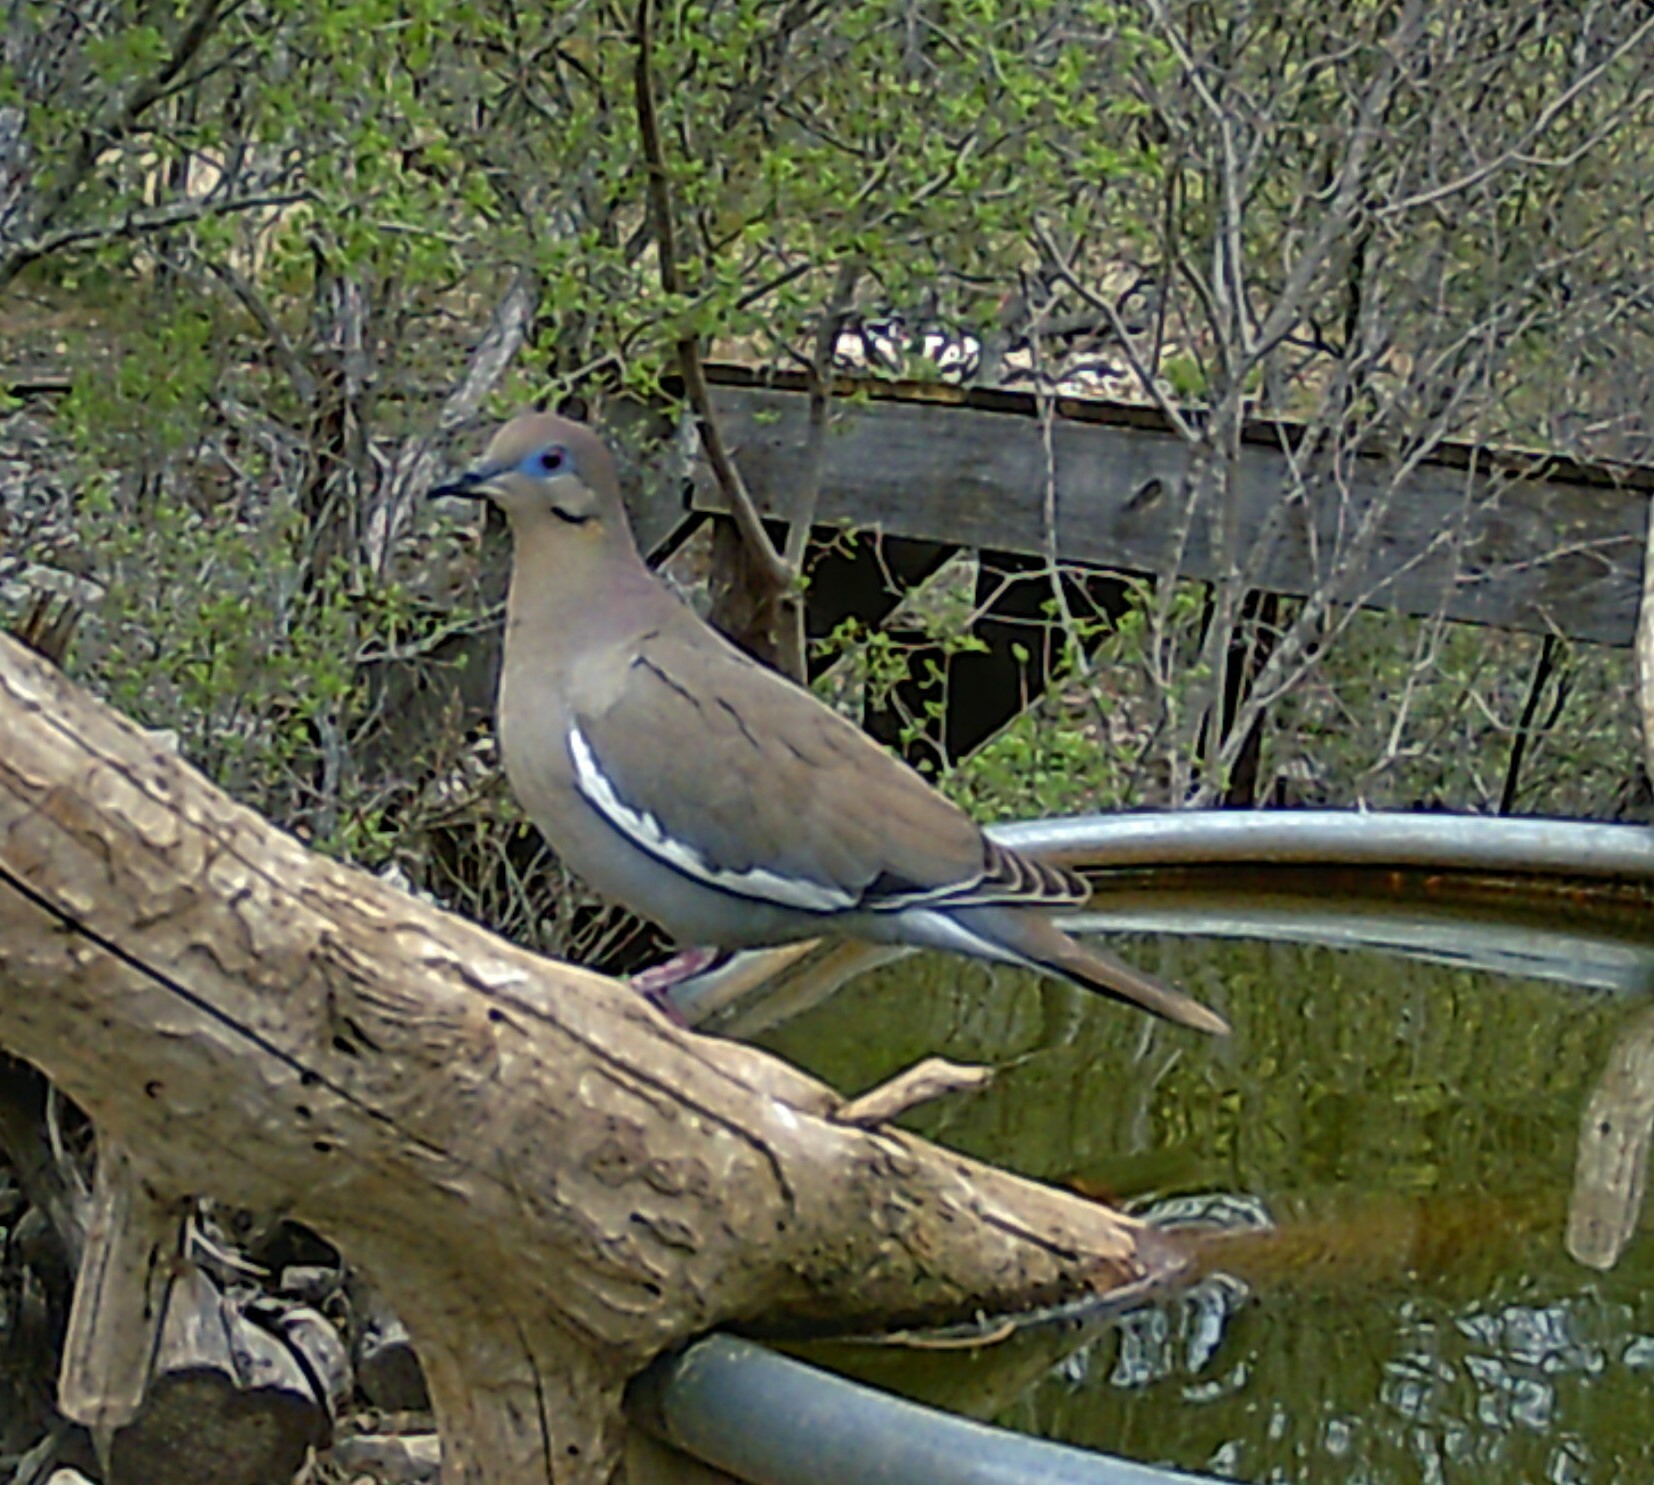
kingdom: Animalia
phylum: Chordata
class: Aves
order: Columbiformes
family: Columbidae
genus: Zenaida
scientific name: Zenaida asiatica
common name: White-winged dove
